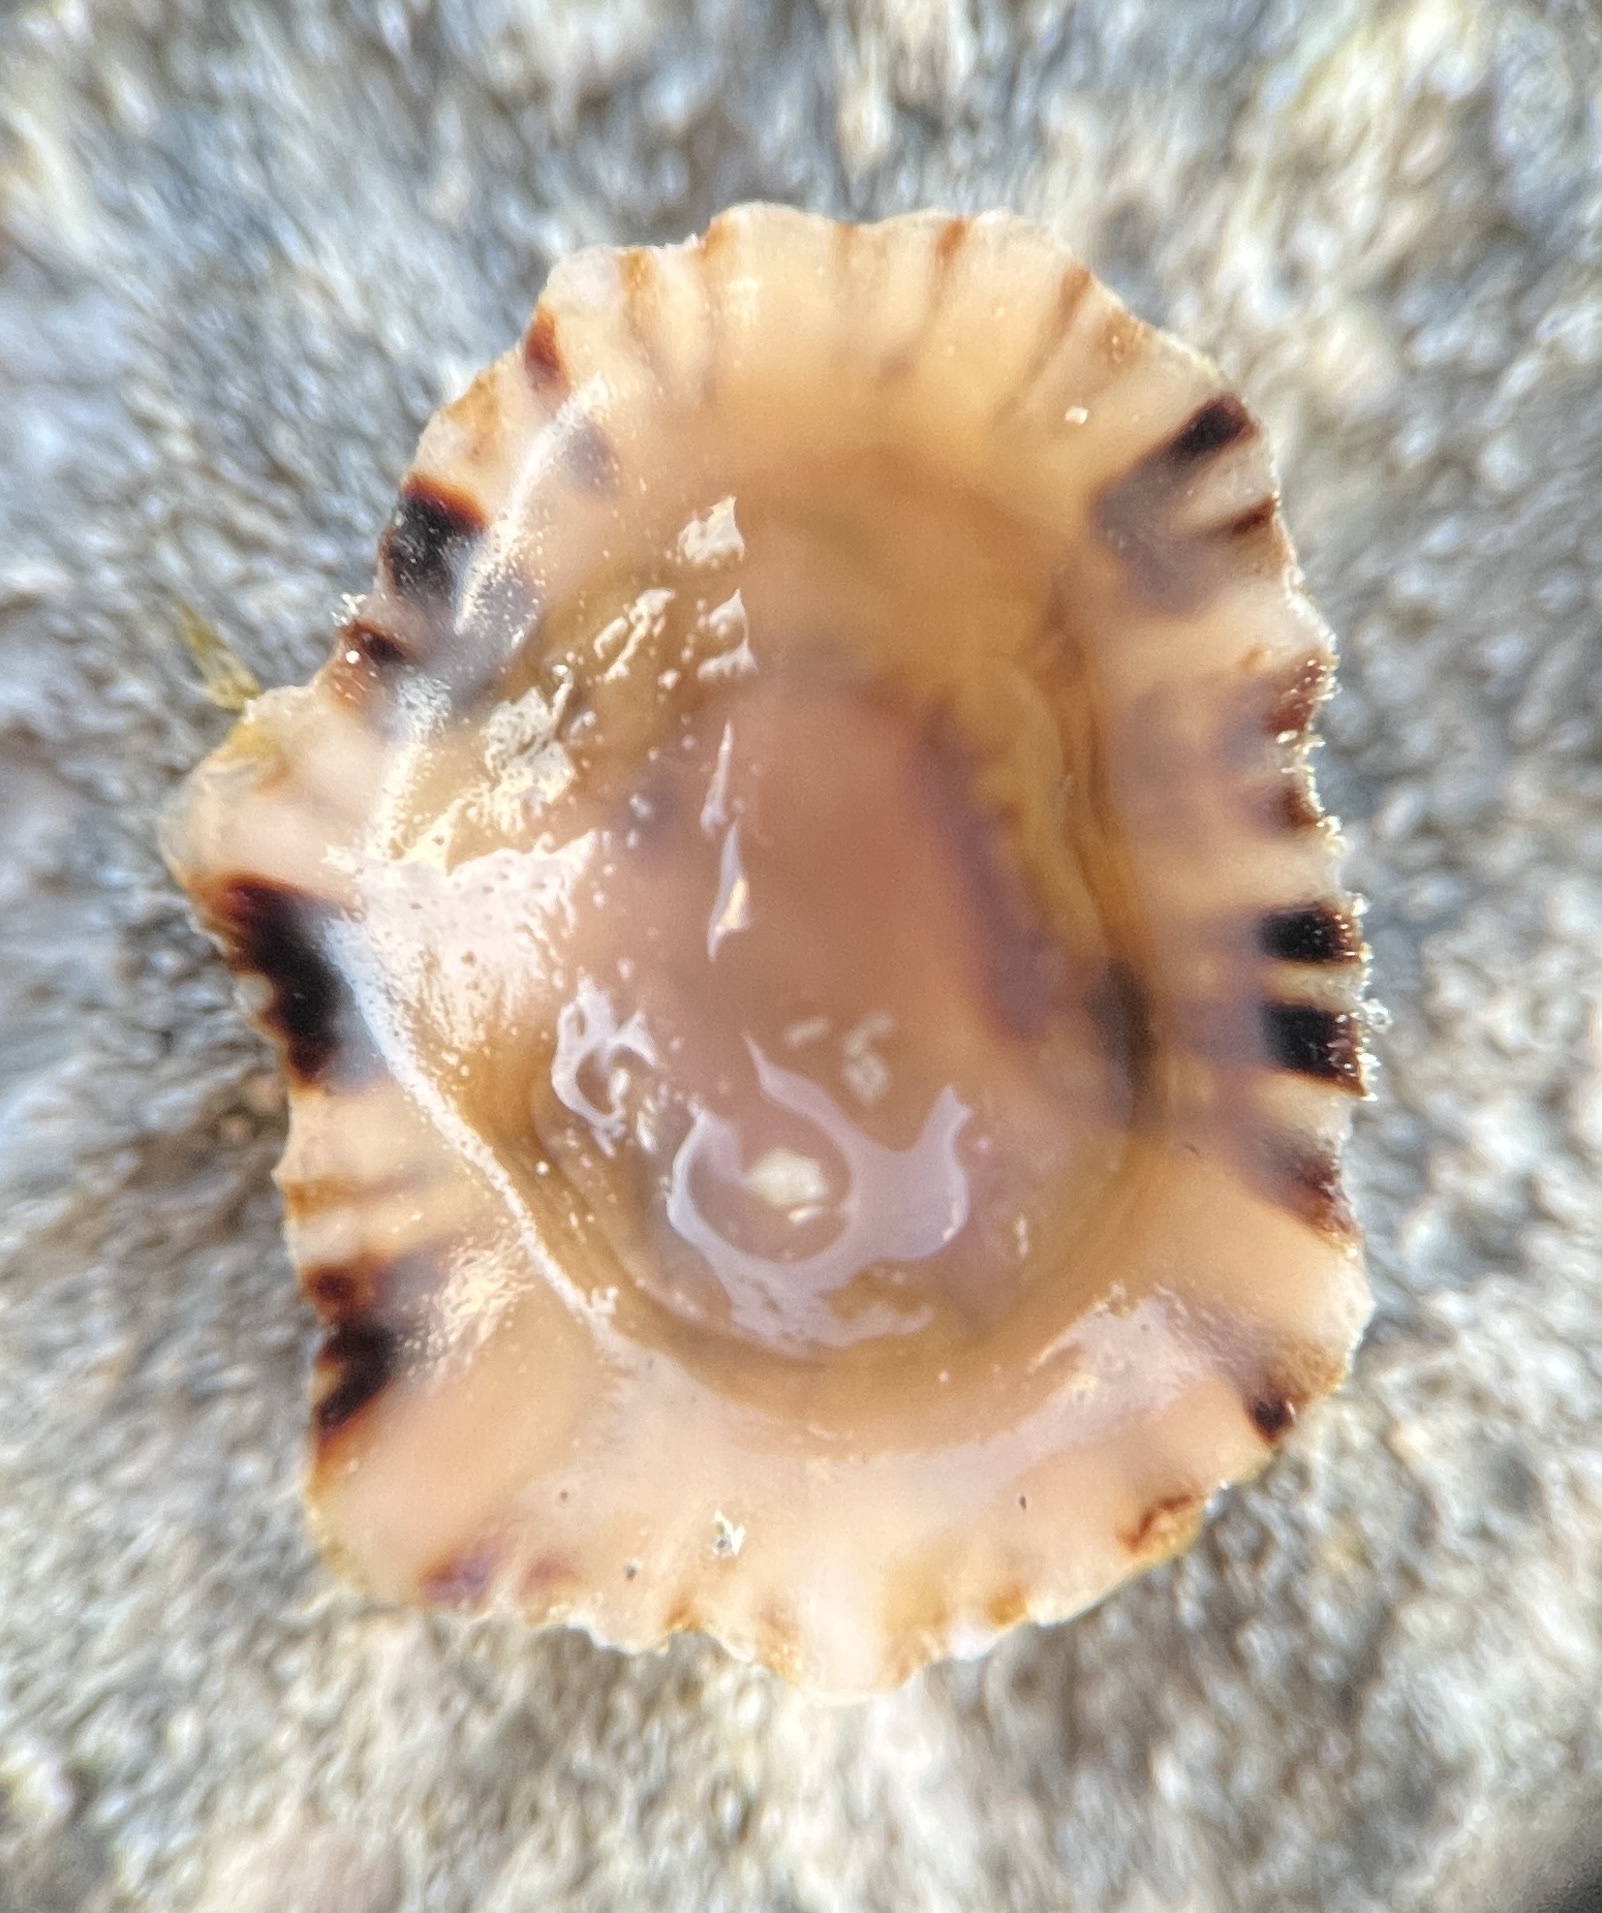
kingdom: Animalia
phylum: Mollusca
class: Gastropoda
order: Siphonariida
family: Siphonariidae
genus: Siphonaria
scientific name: Siphonaria alternata
